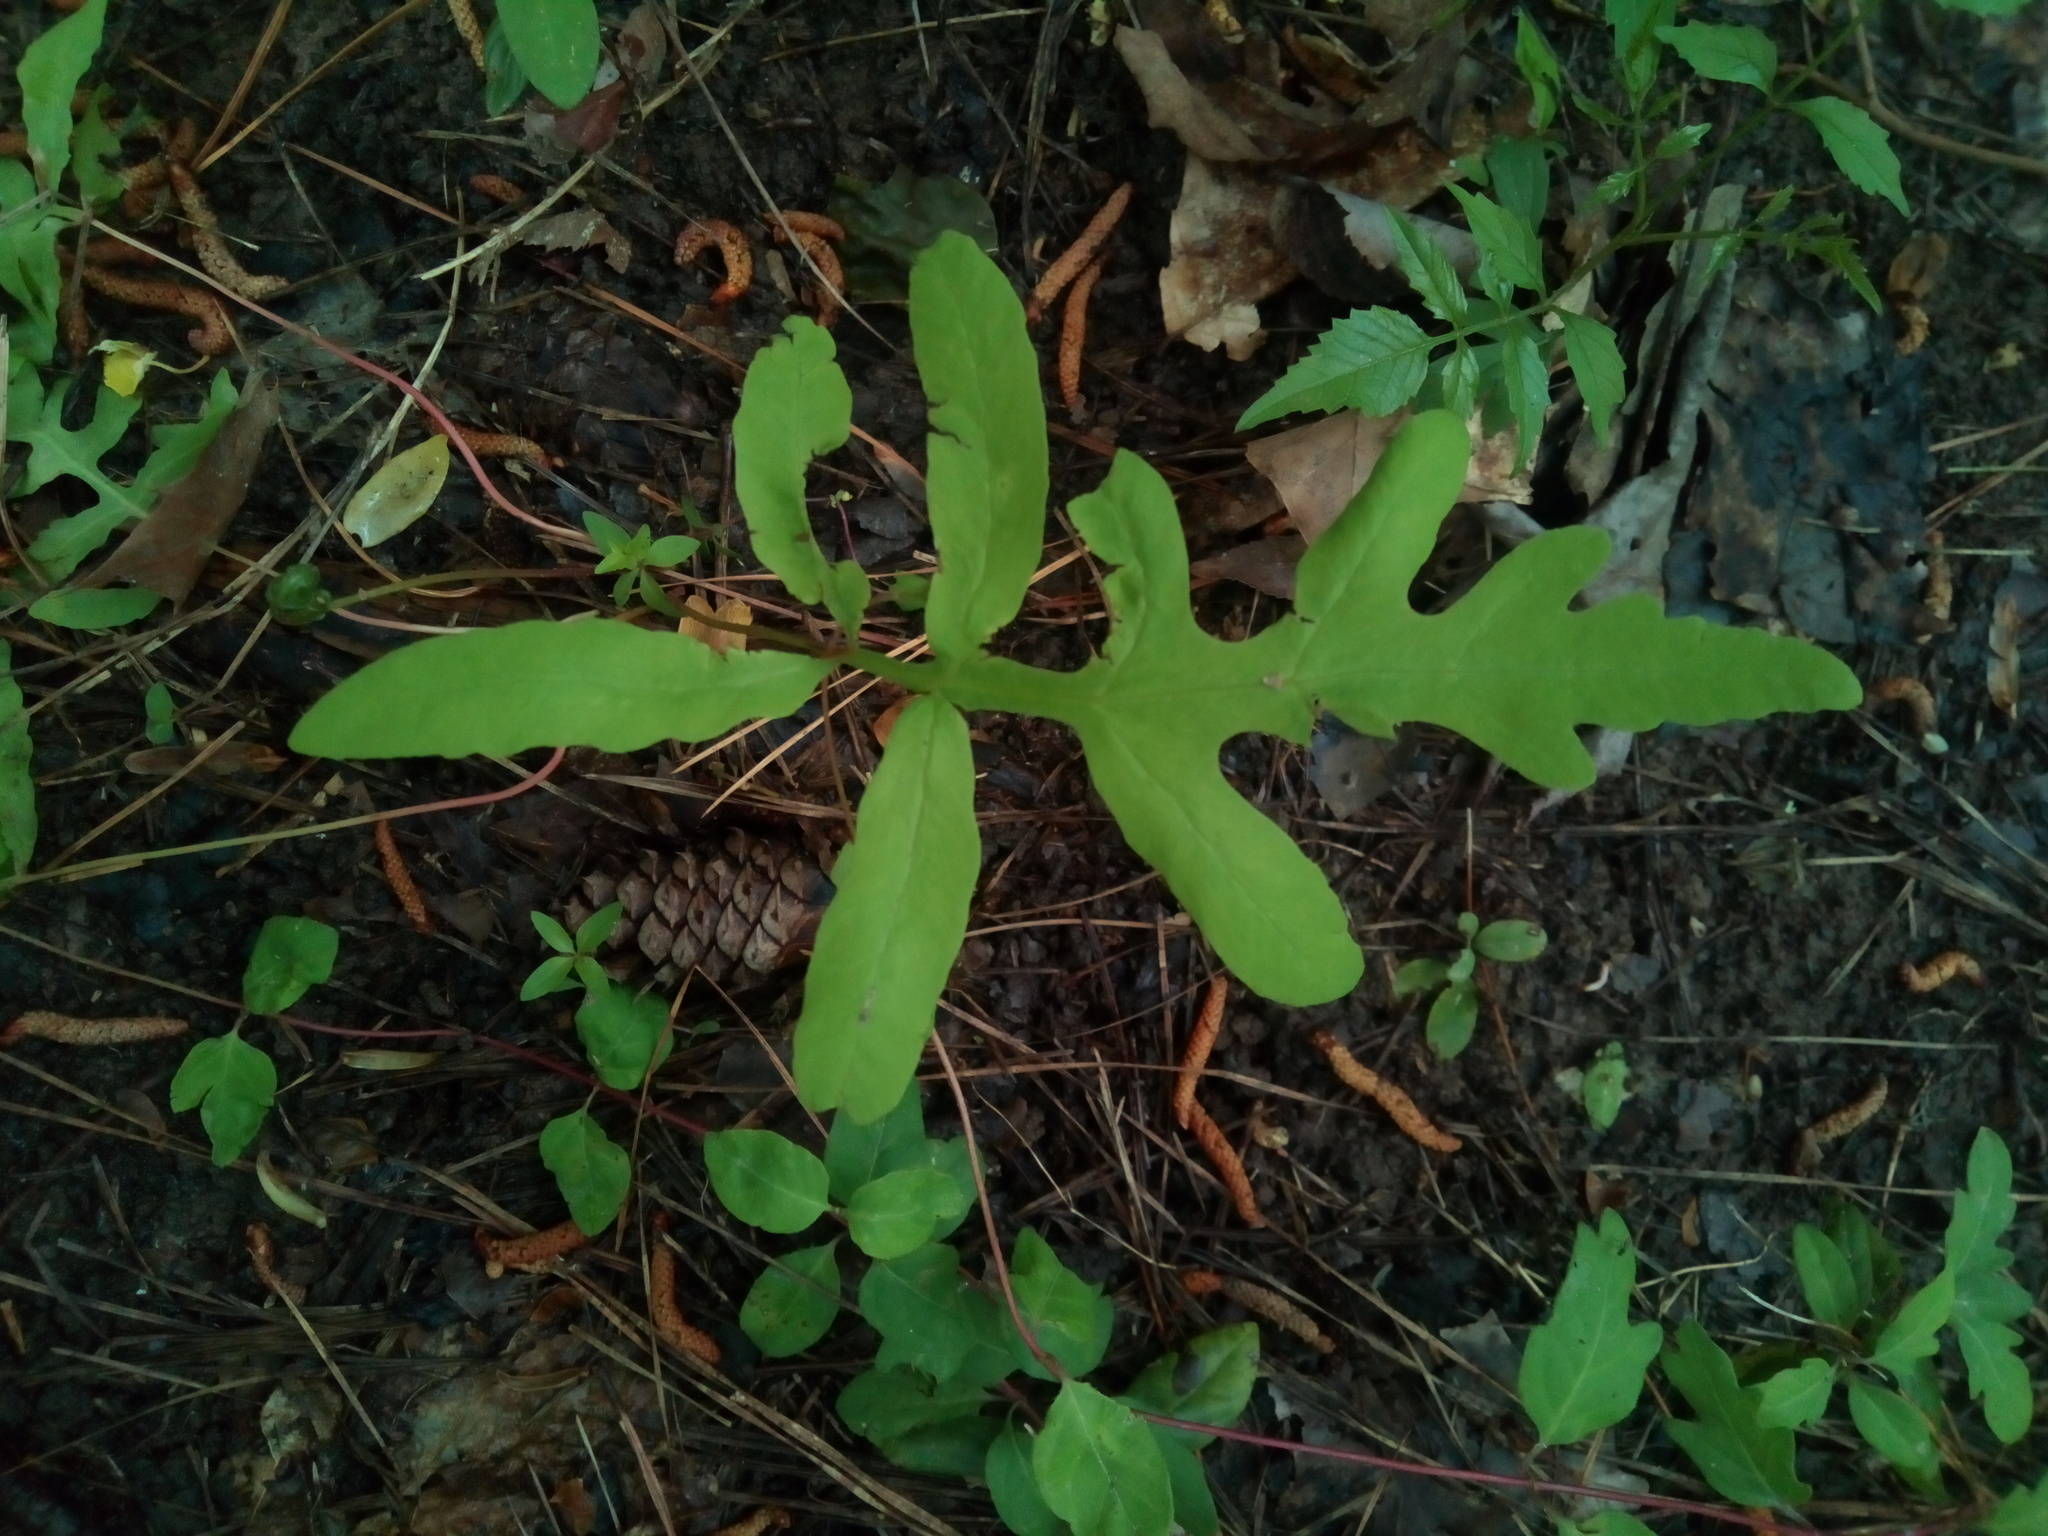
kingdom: Plantae
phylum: Tracheophyta
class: Polypodiopsida
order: Polypodiales
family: Onocleaceae
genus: Onoclea
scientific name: Onoclea sensibilis
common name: Sensitive fern
